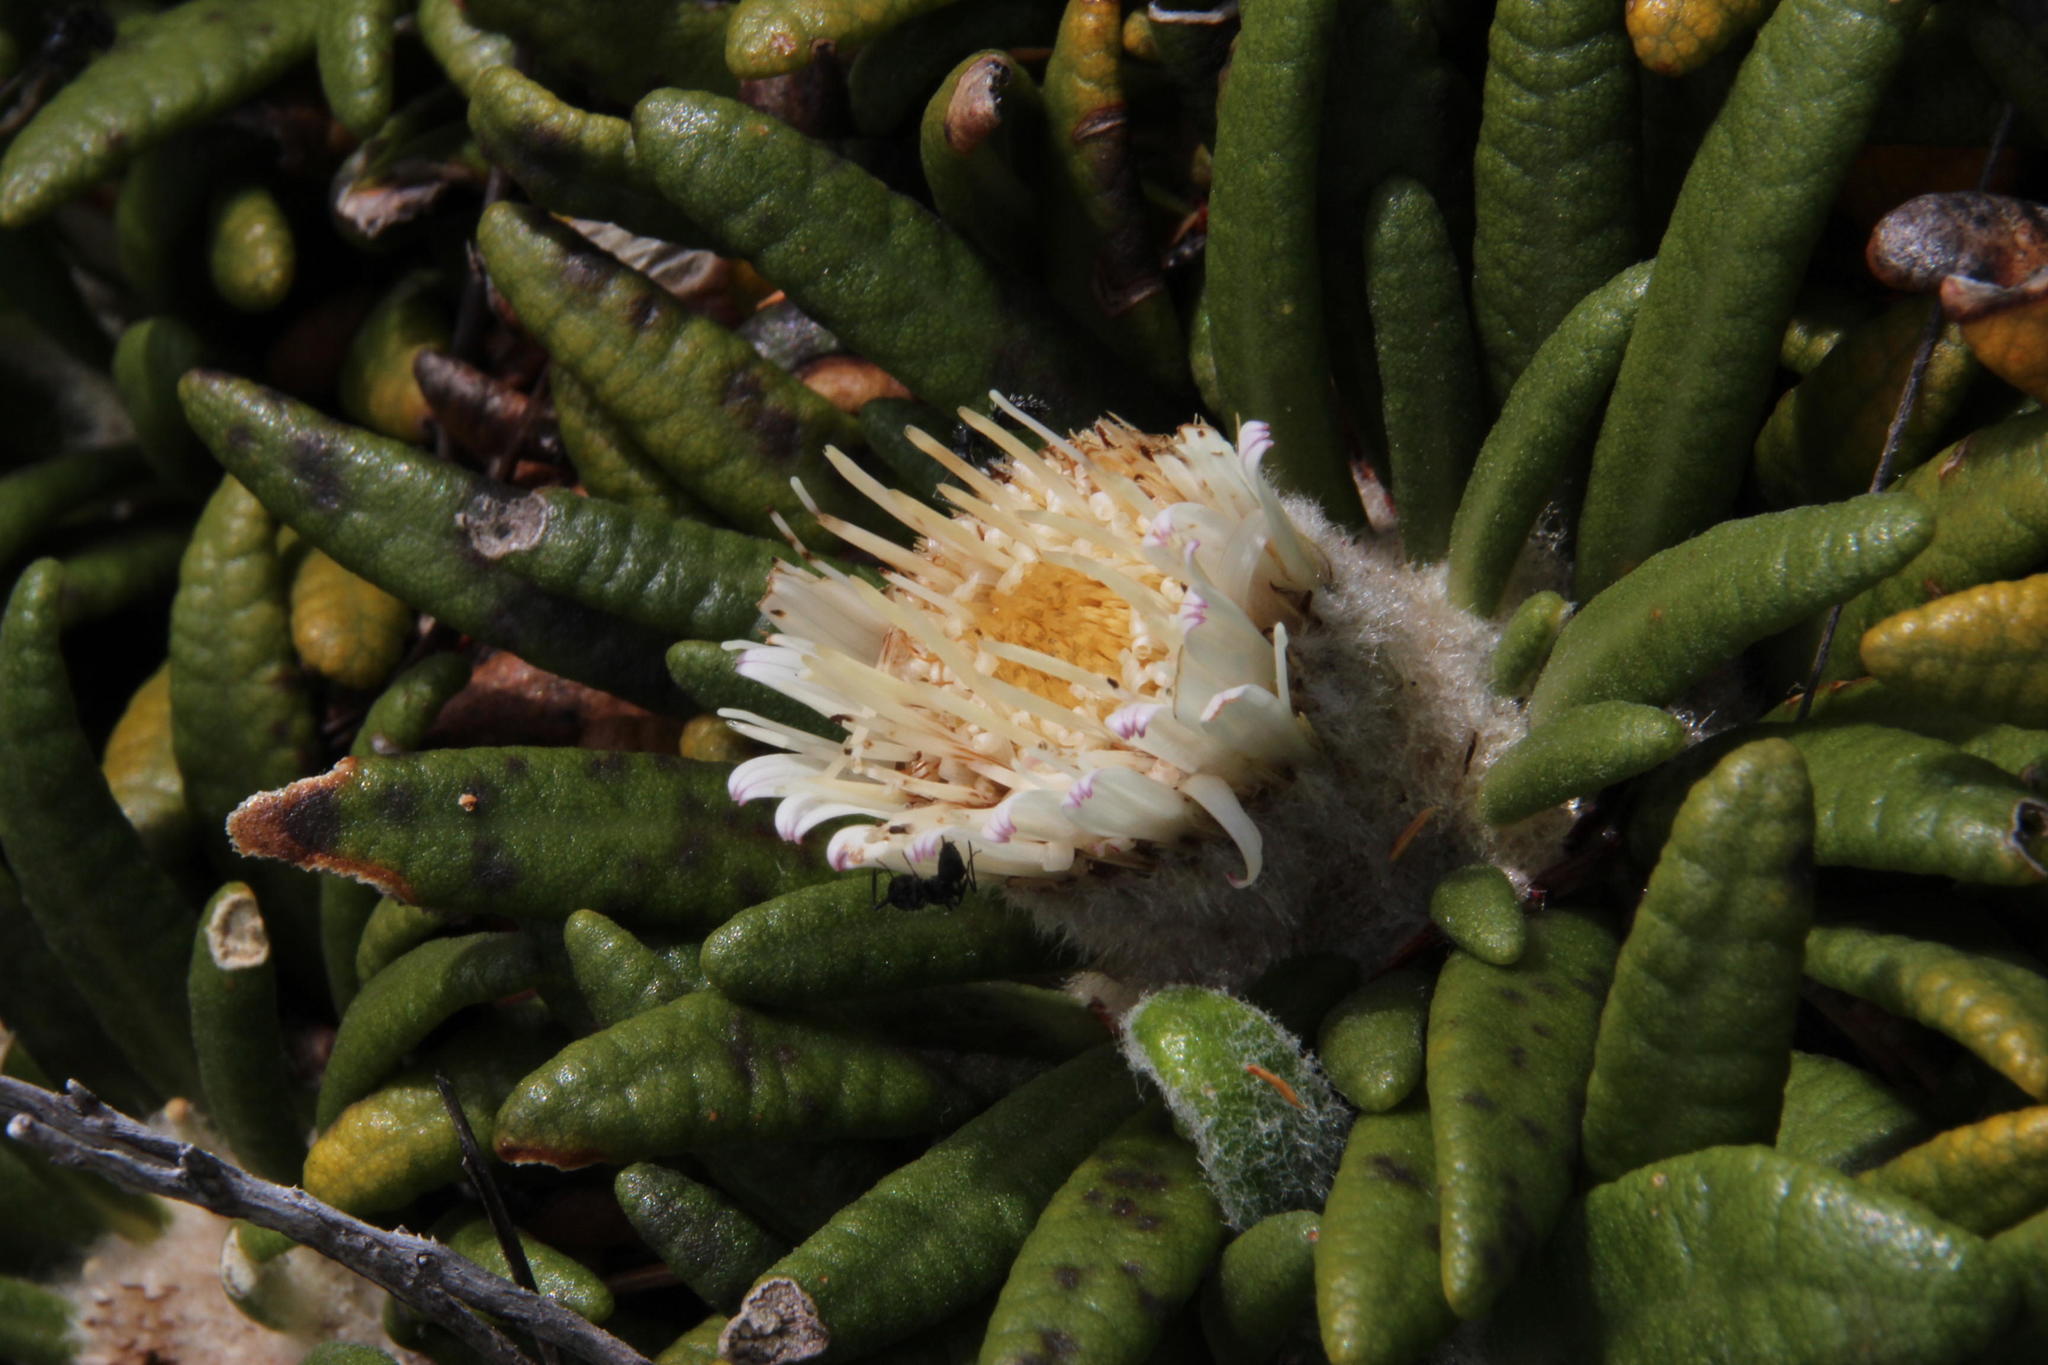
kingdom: Plantae
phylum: Tracheophyta
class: Magnoliopsida
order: Asterales
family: Asteraceae
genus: Oldenburgia
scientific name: Oldenburgia paradoxa
